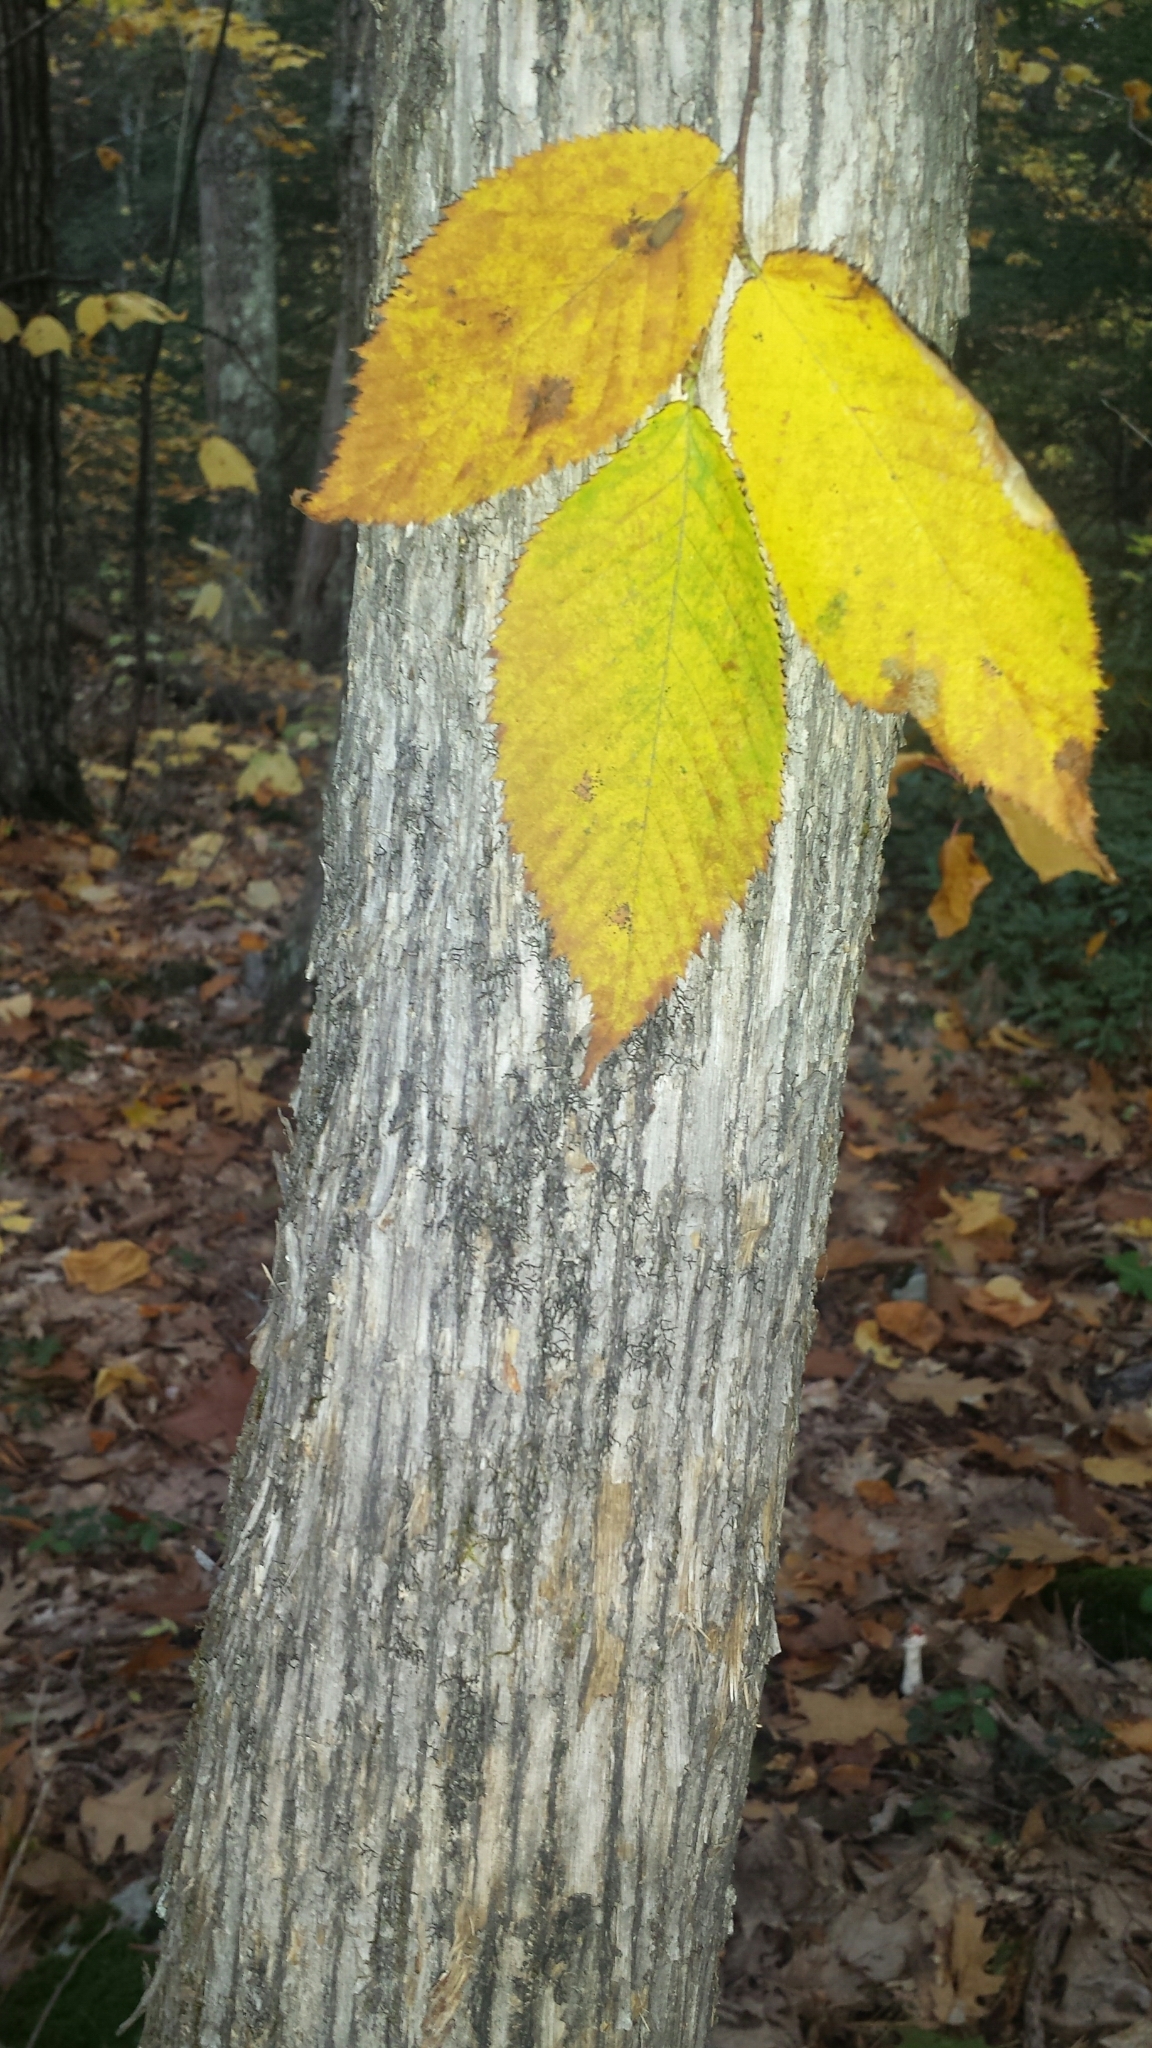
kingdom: Plantae
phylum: Tracheophyta
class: Magnoliopsida
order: Fagales
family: Betulaceae
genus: Ostrya
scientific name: Ostrya virginiana
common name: Ironwood
